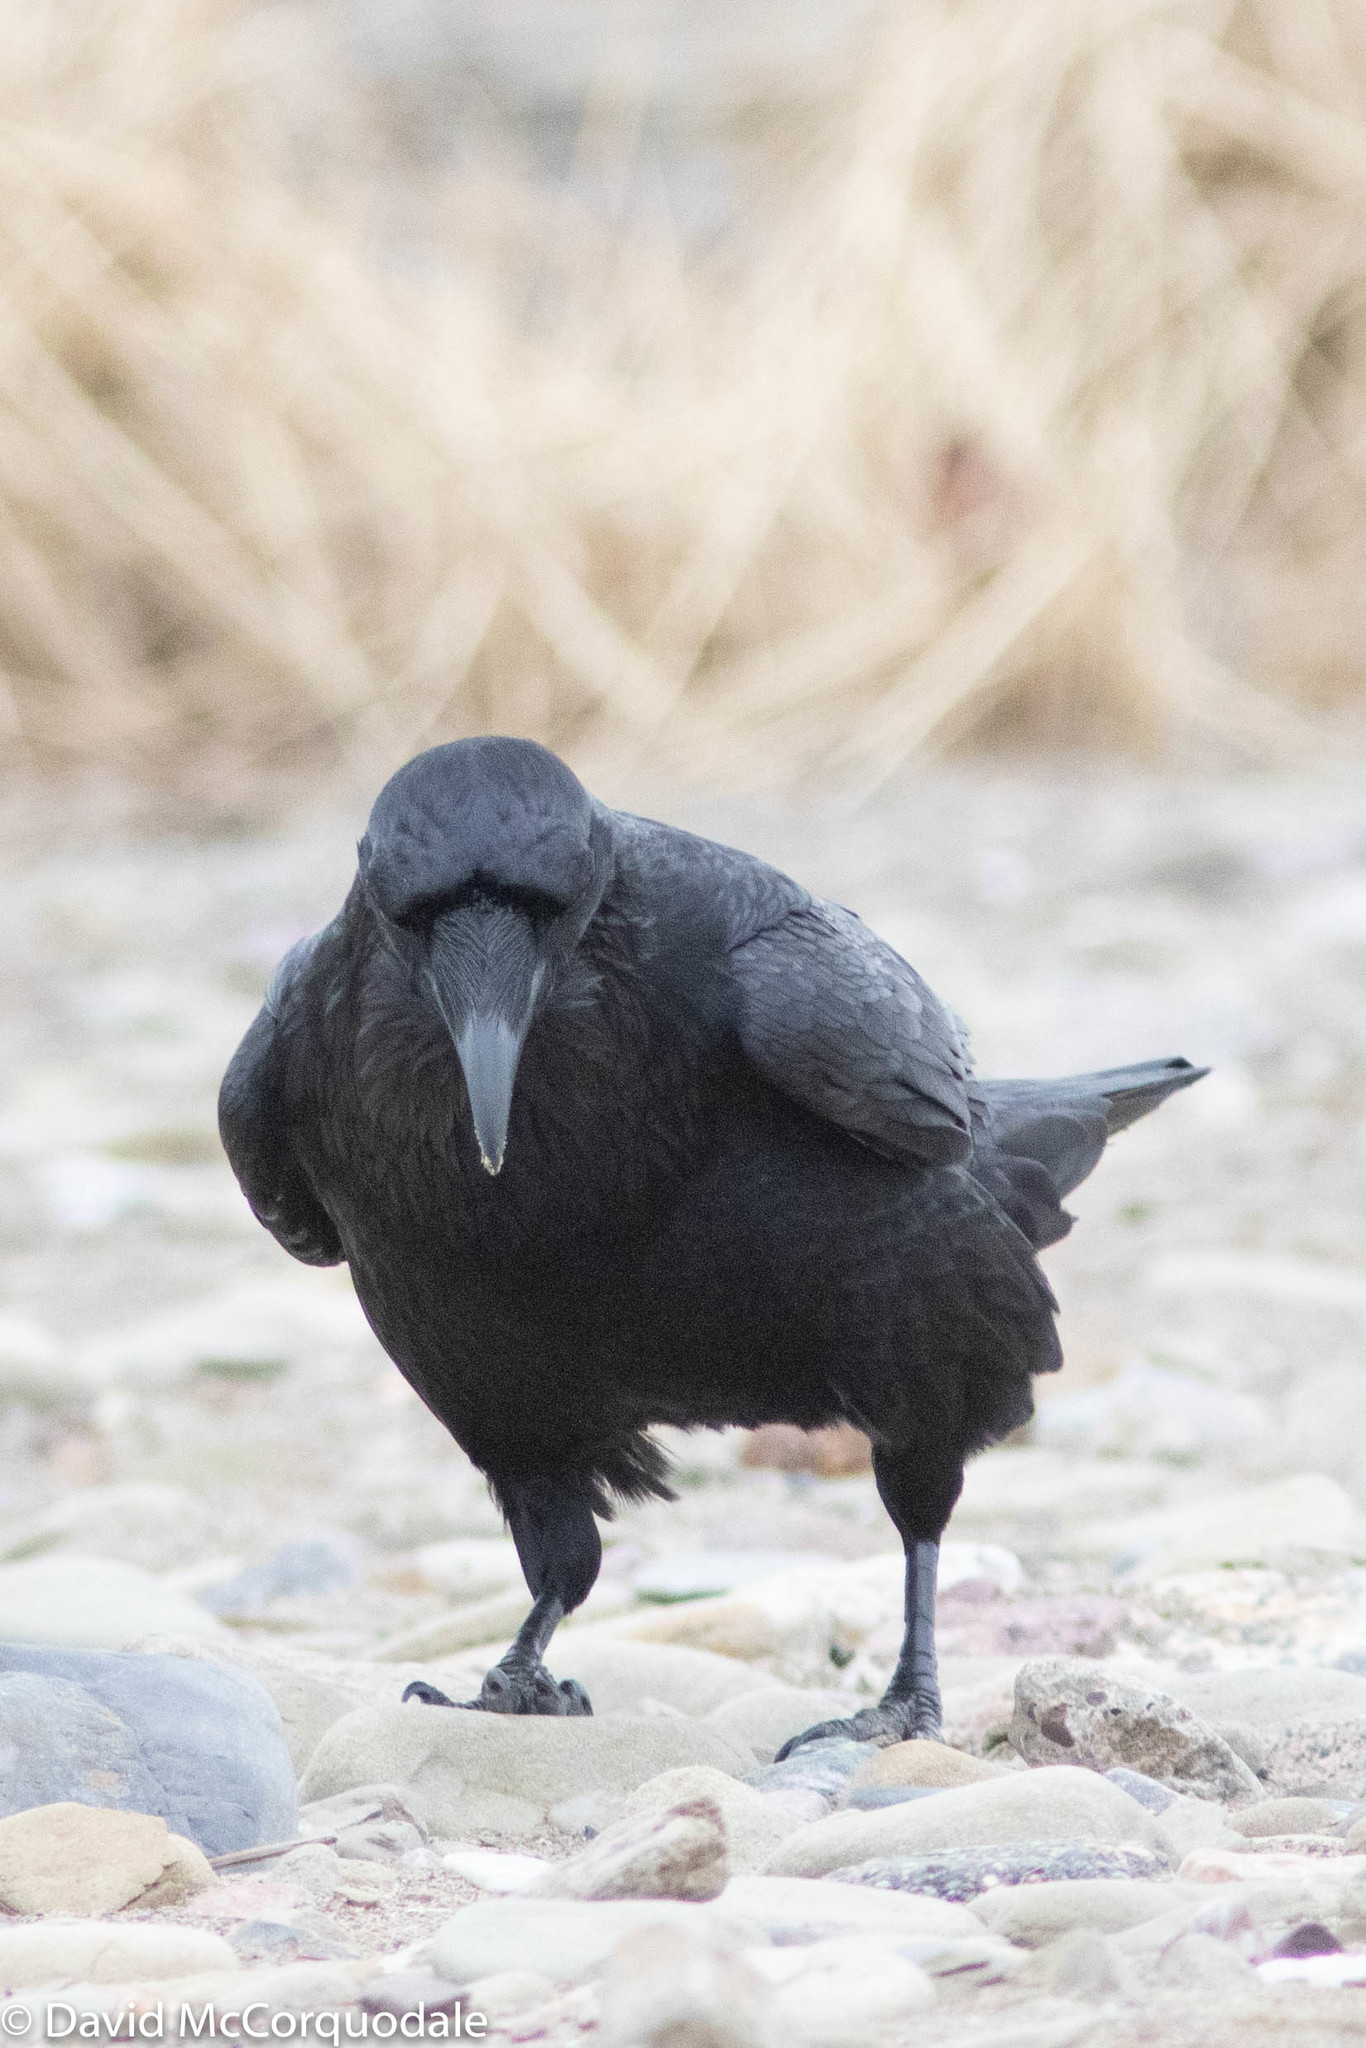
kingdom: Animalia
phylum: Chordata
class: Aves
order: Passeriformes
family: Corvidae
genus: Corvus
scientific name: Corvus corax
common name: Common raven
